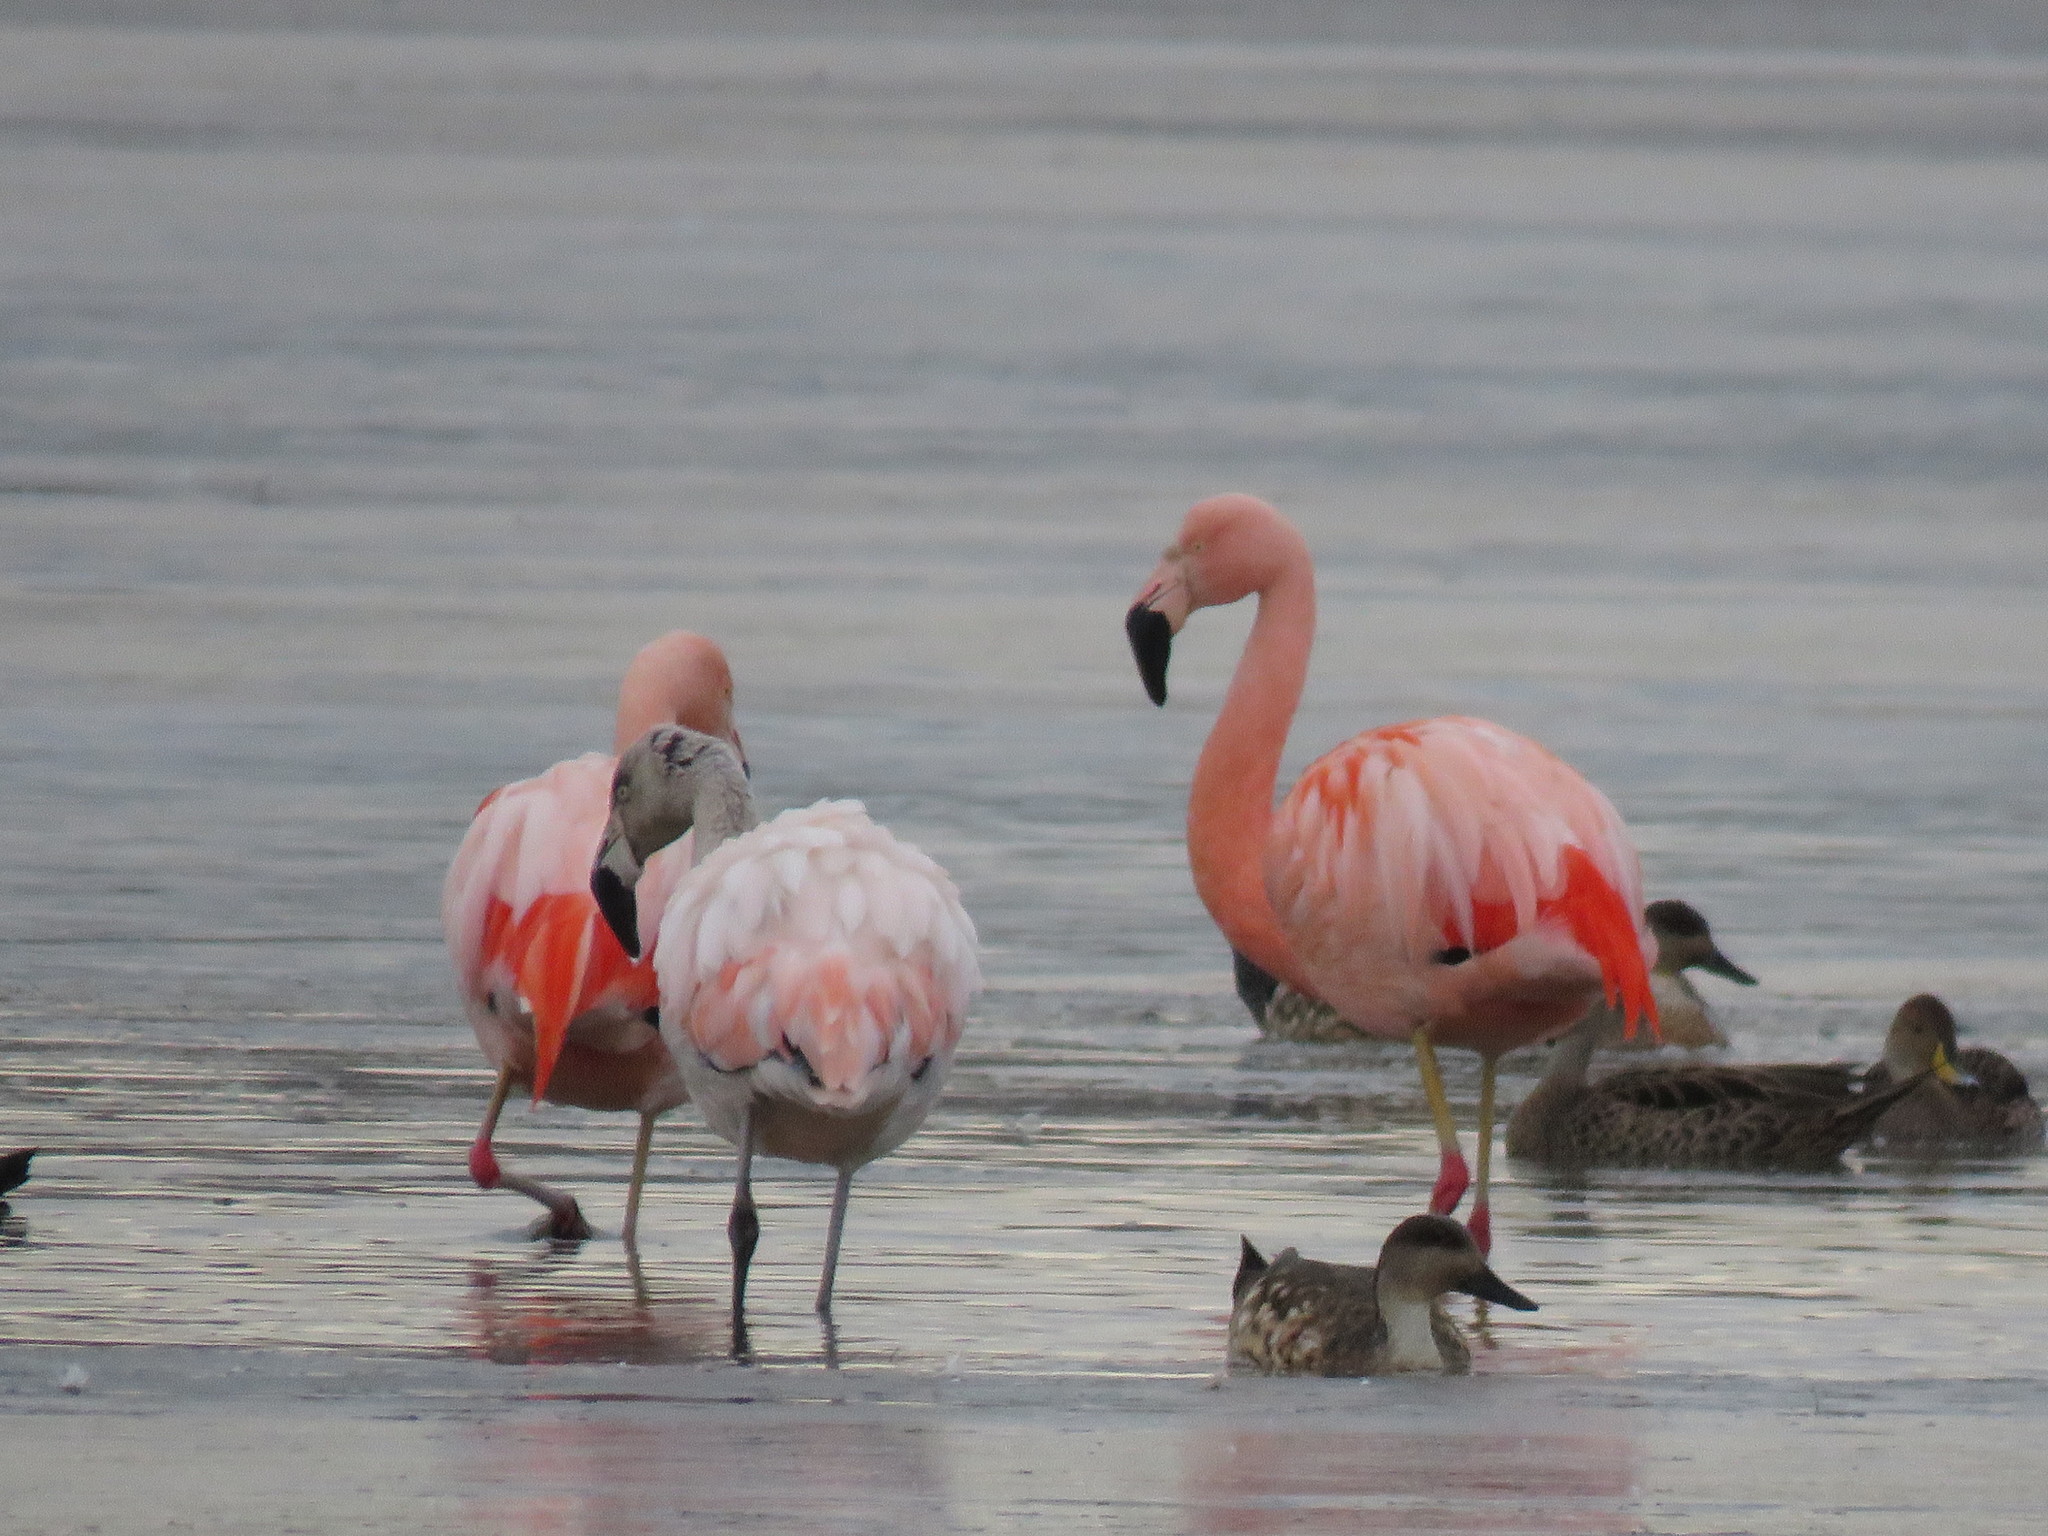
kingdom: Animalia
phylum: Chordata
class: Aves
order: Phoenicopteriformes
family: Phoenicopteridae
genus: Phoenicopterus
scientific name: Phoenicopterus chilensis
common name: Chilean flamingo
